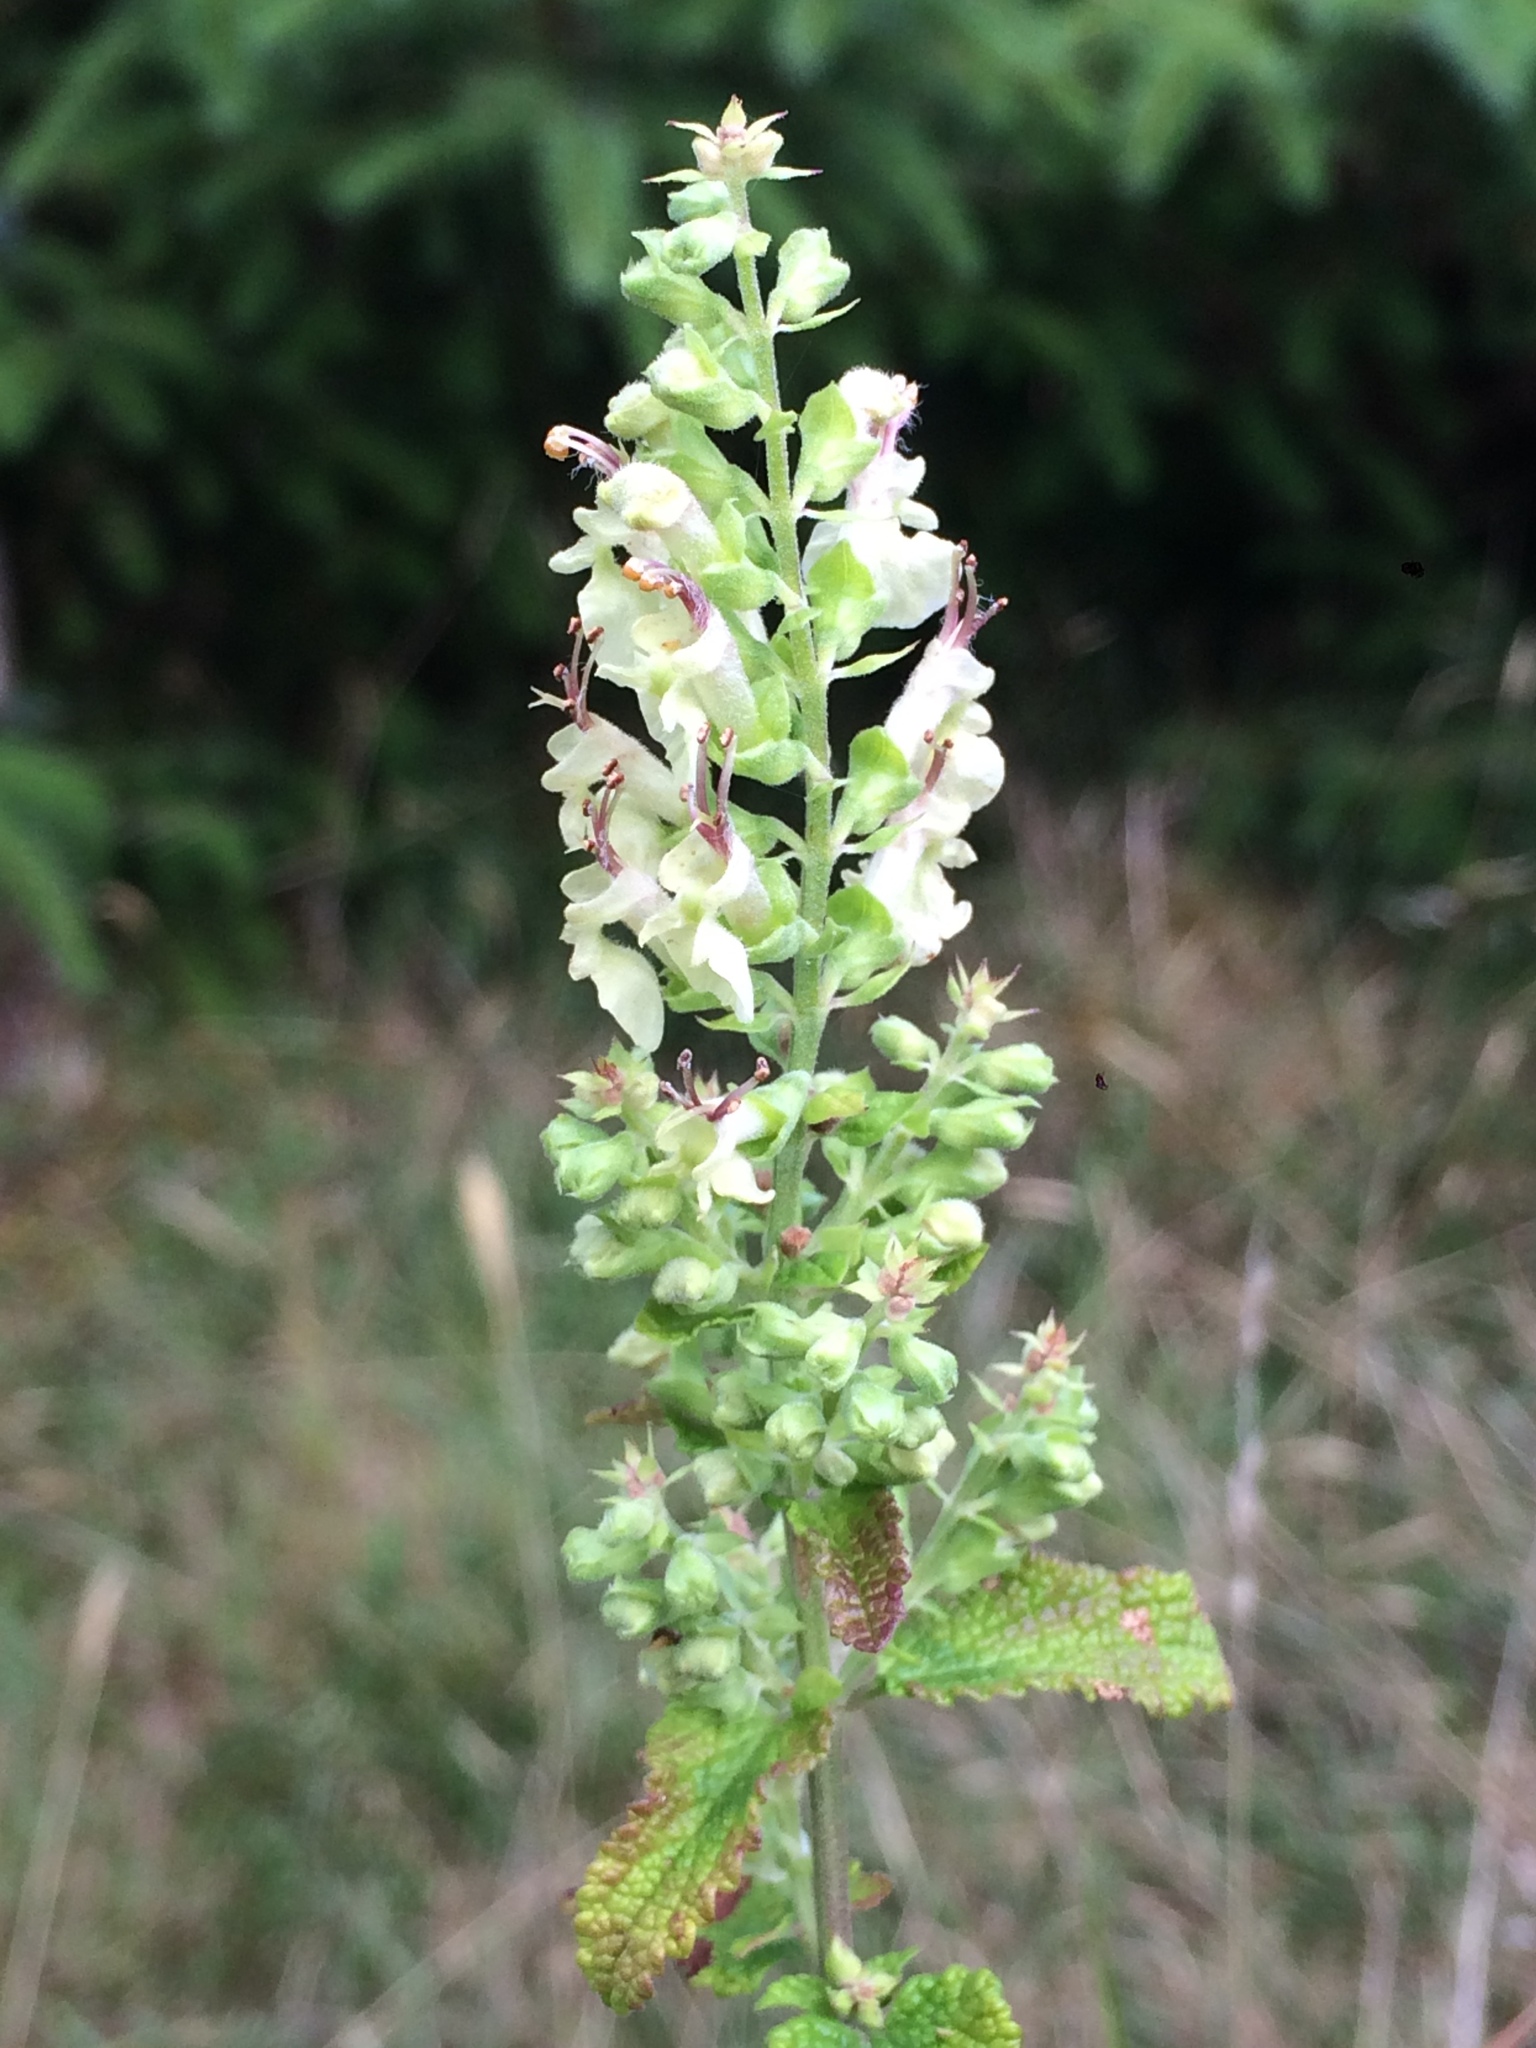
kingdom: Plantae
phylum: Tracheophyta
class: Magnoliopsida
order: Lamiales
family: Lamiaceae
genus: Teucrium
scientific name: Teucrium scorodonia
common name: Woodland germander
